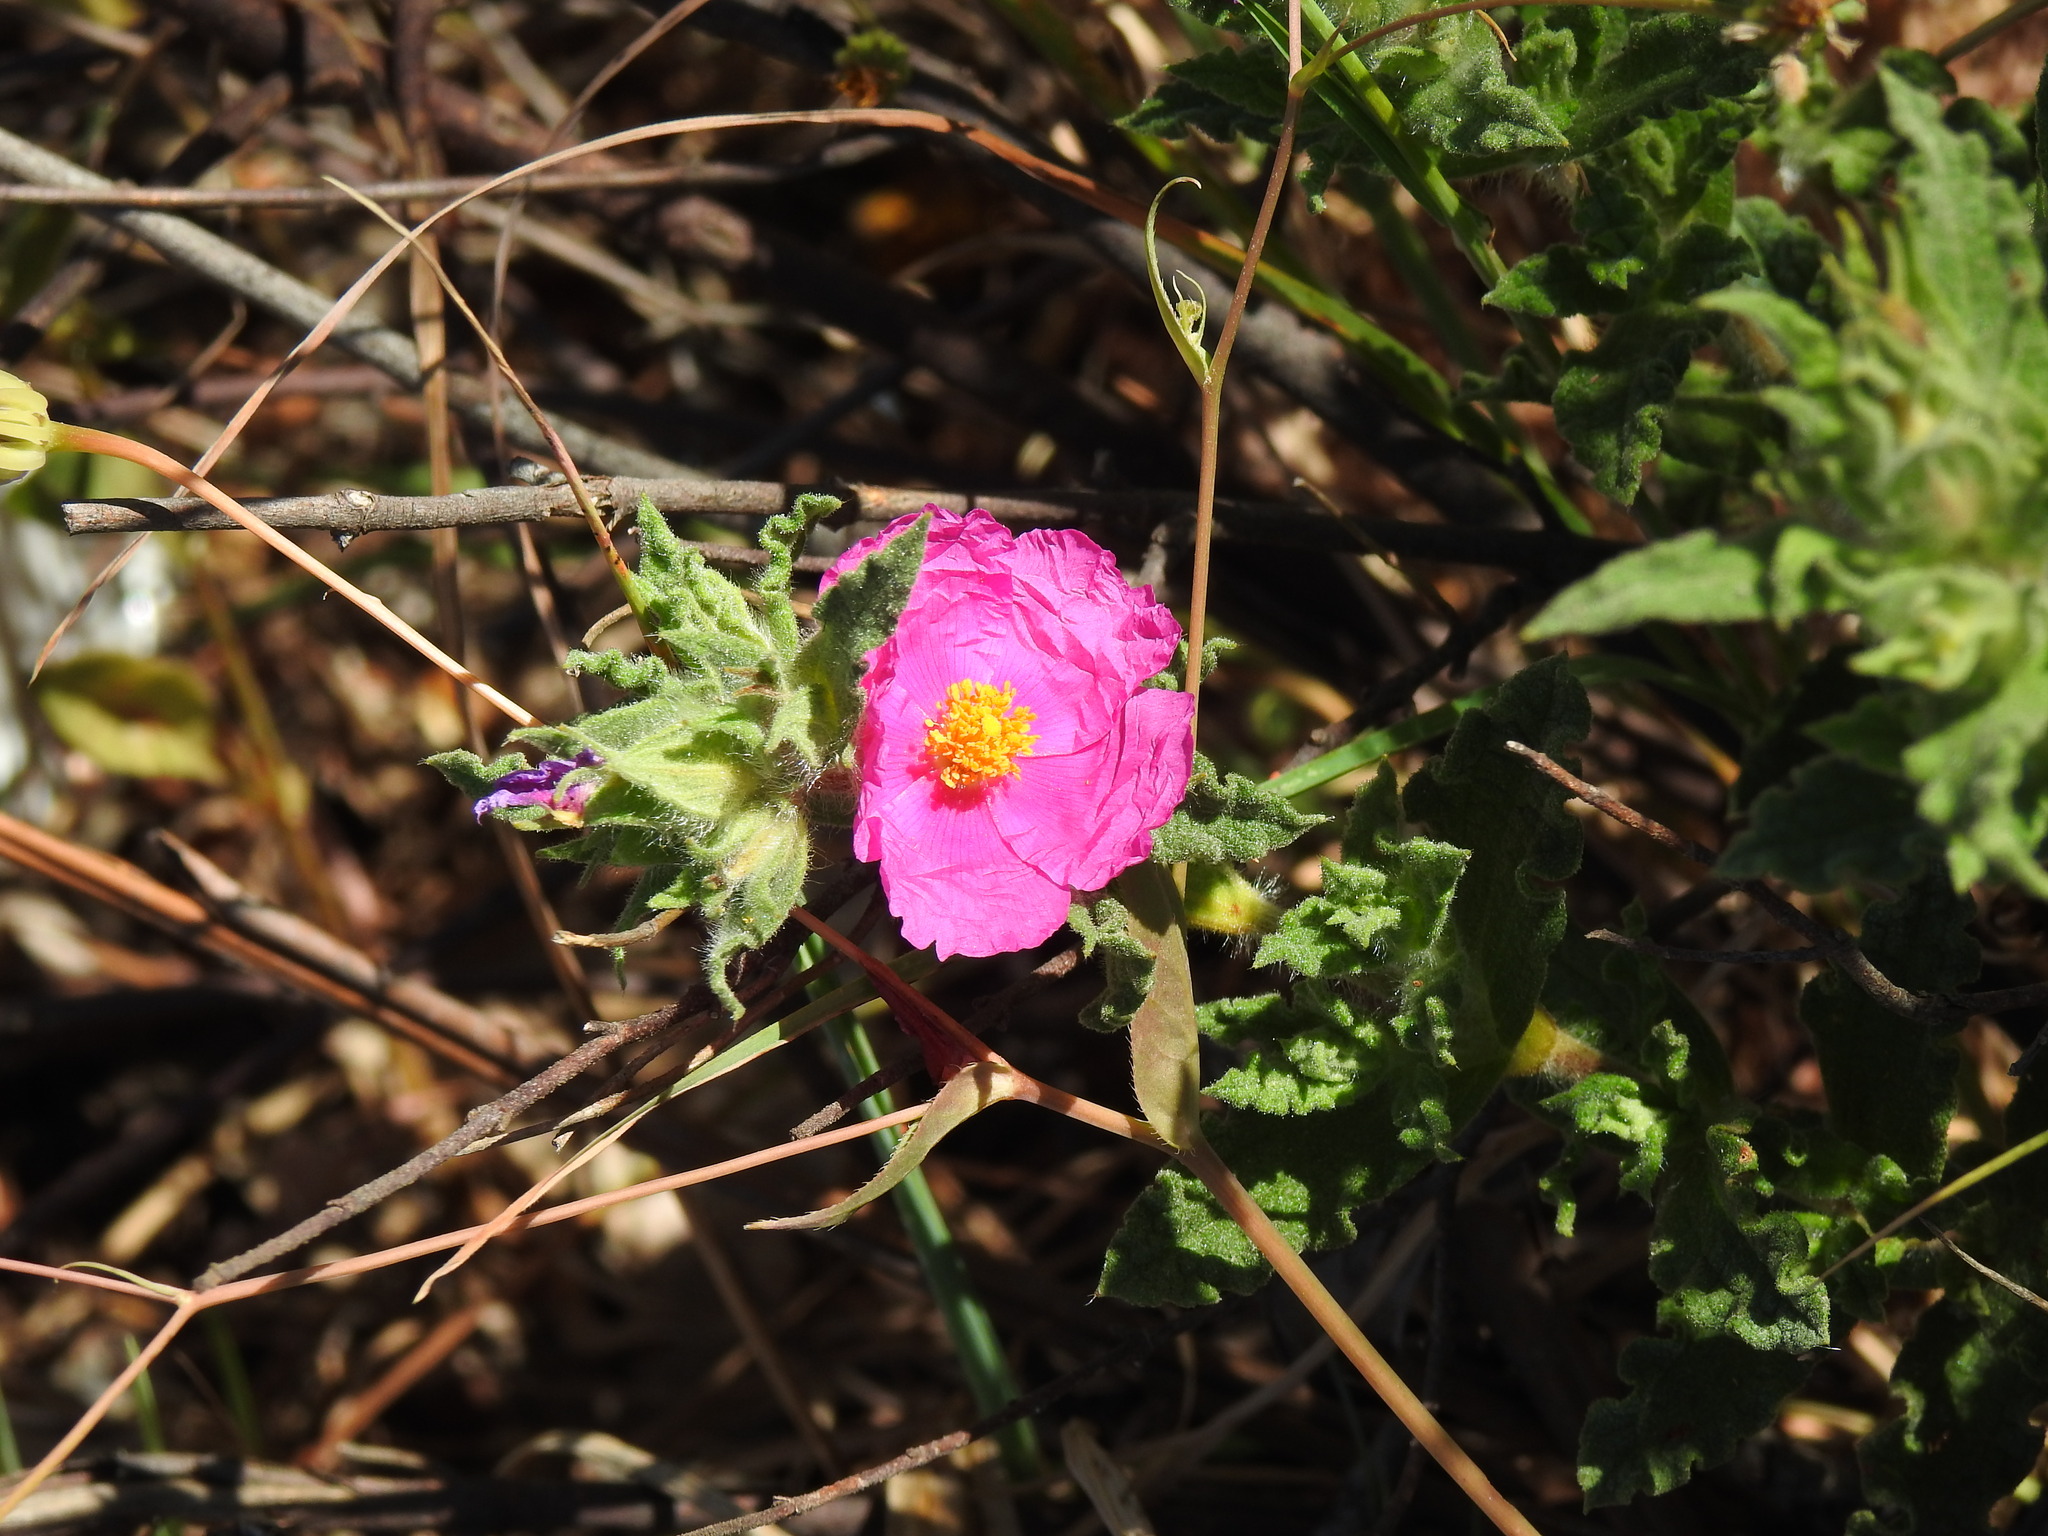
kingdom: Plantae
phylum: Tracheophyta
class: Magnoliopsida
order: Malvales
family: Cistaceae
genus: Cistus
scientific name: Cistus crispus
